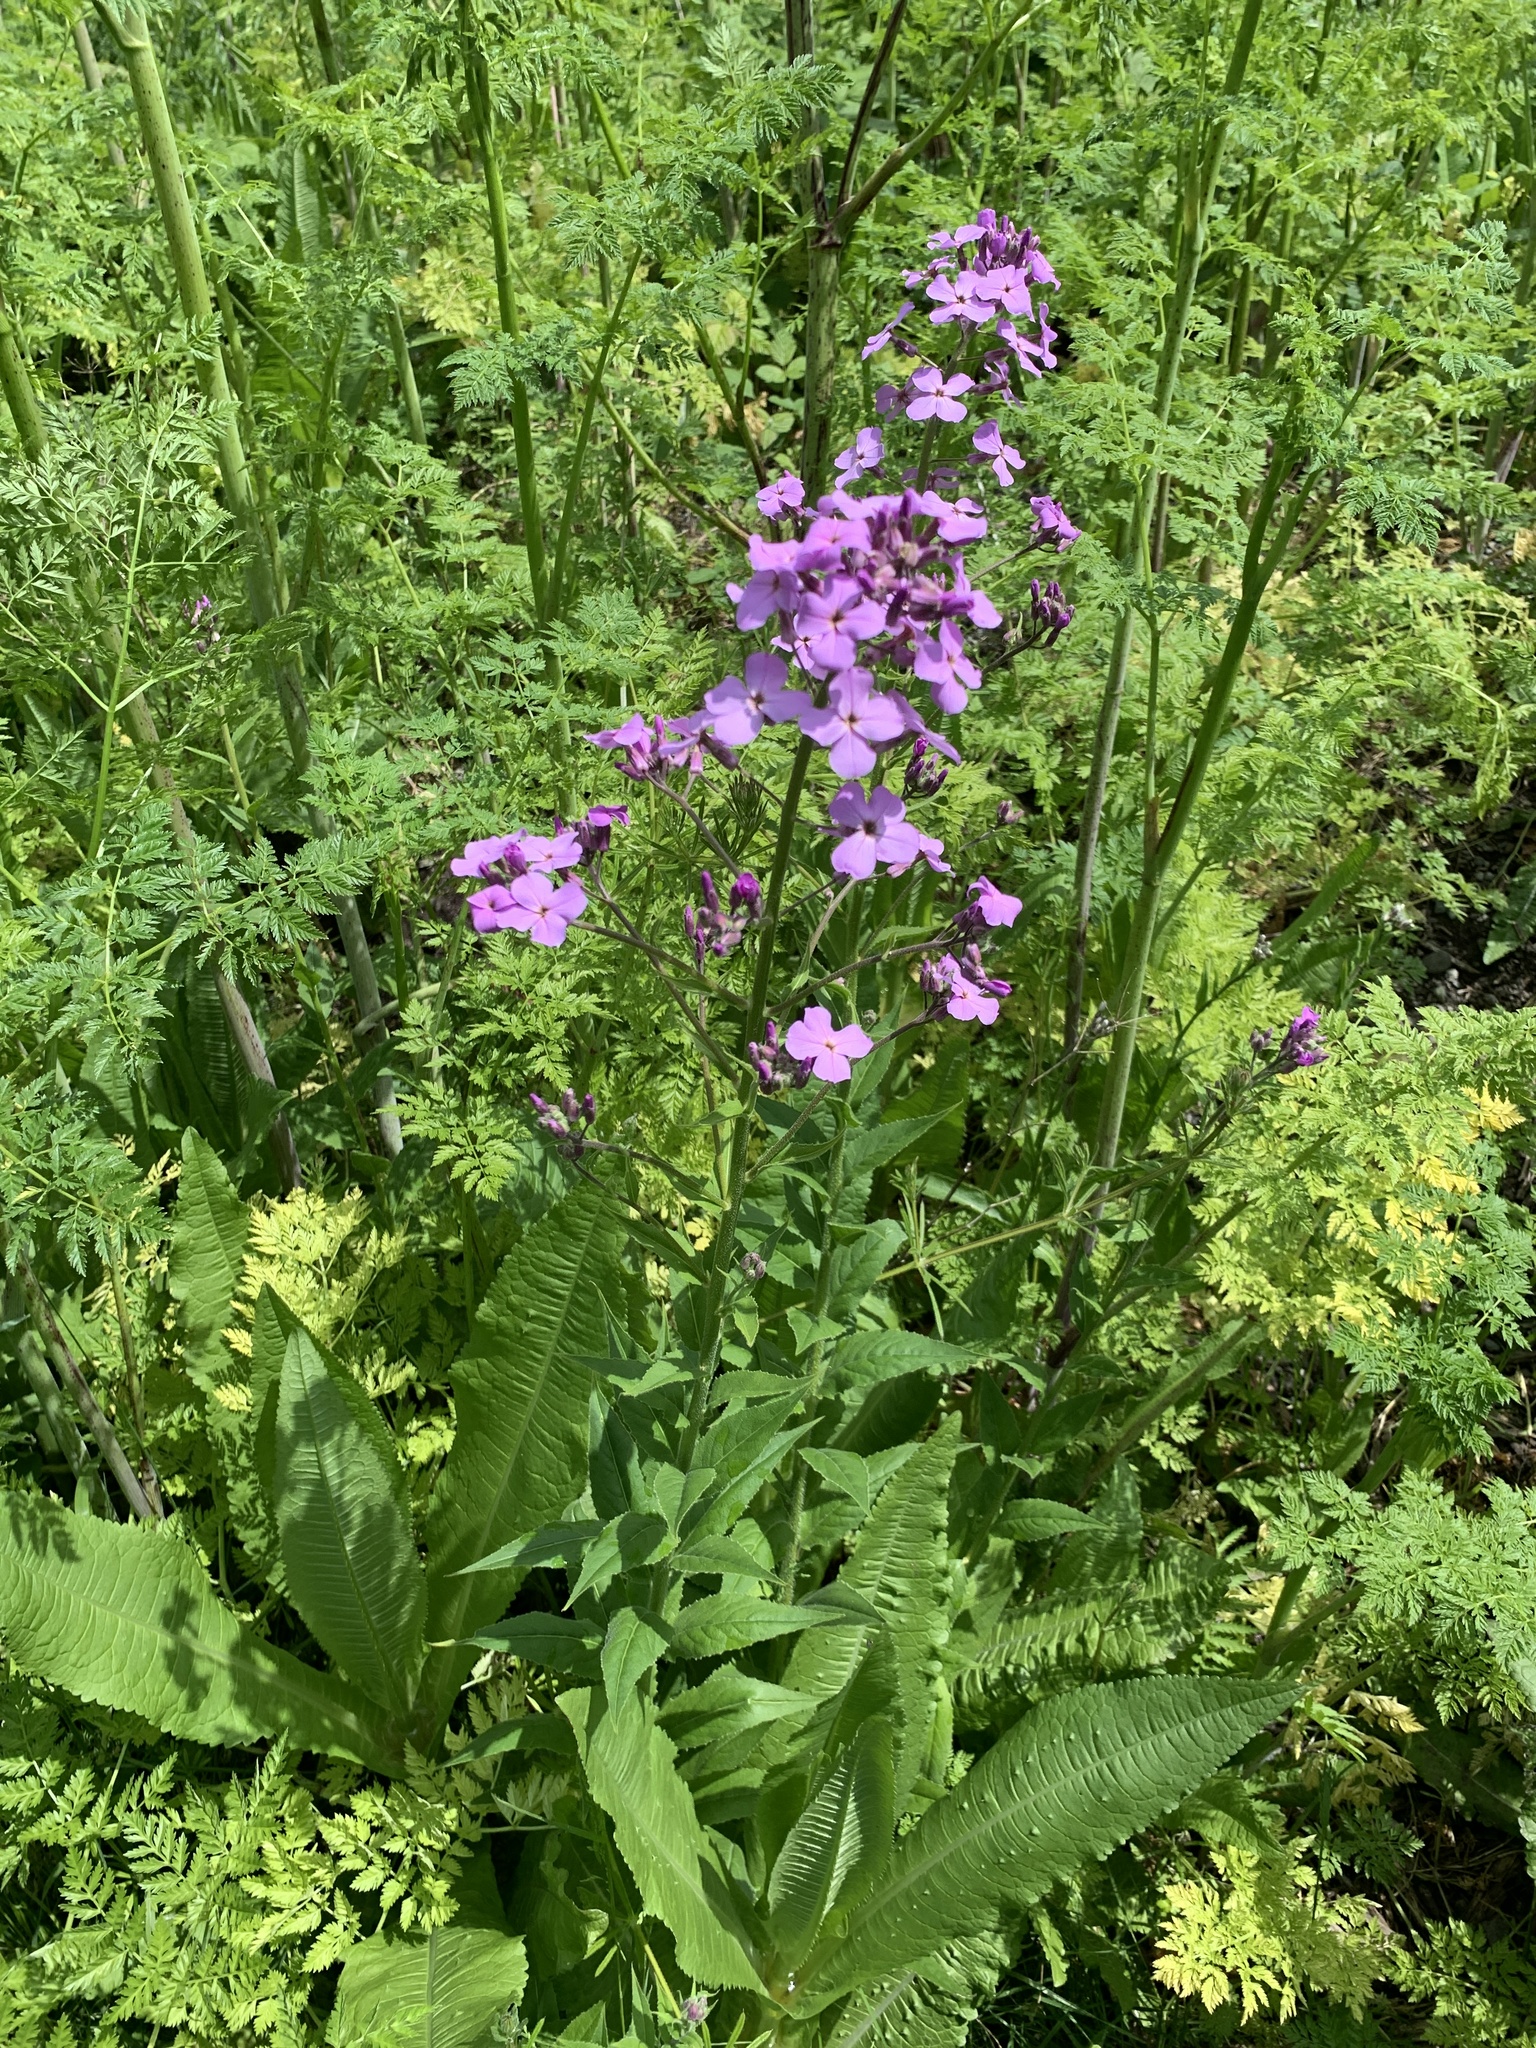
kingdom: Plantae
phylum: Tracheophyta
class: Magnoliopsida
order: Brassicales
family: Brassicaceae
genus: Hesperis
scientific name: Hesperis matronalis
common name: Dame's-violet
